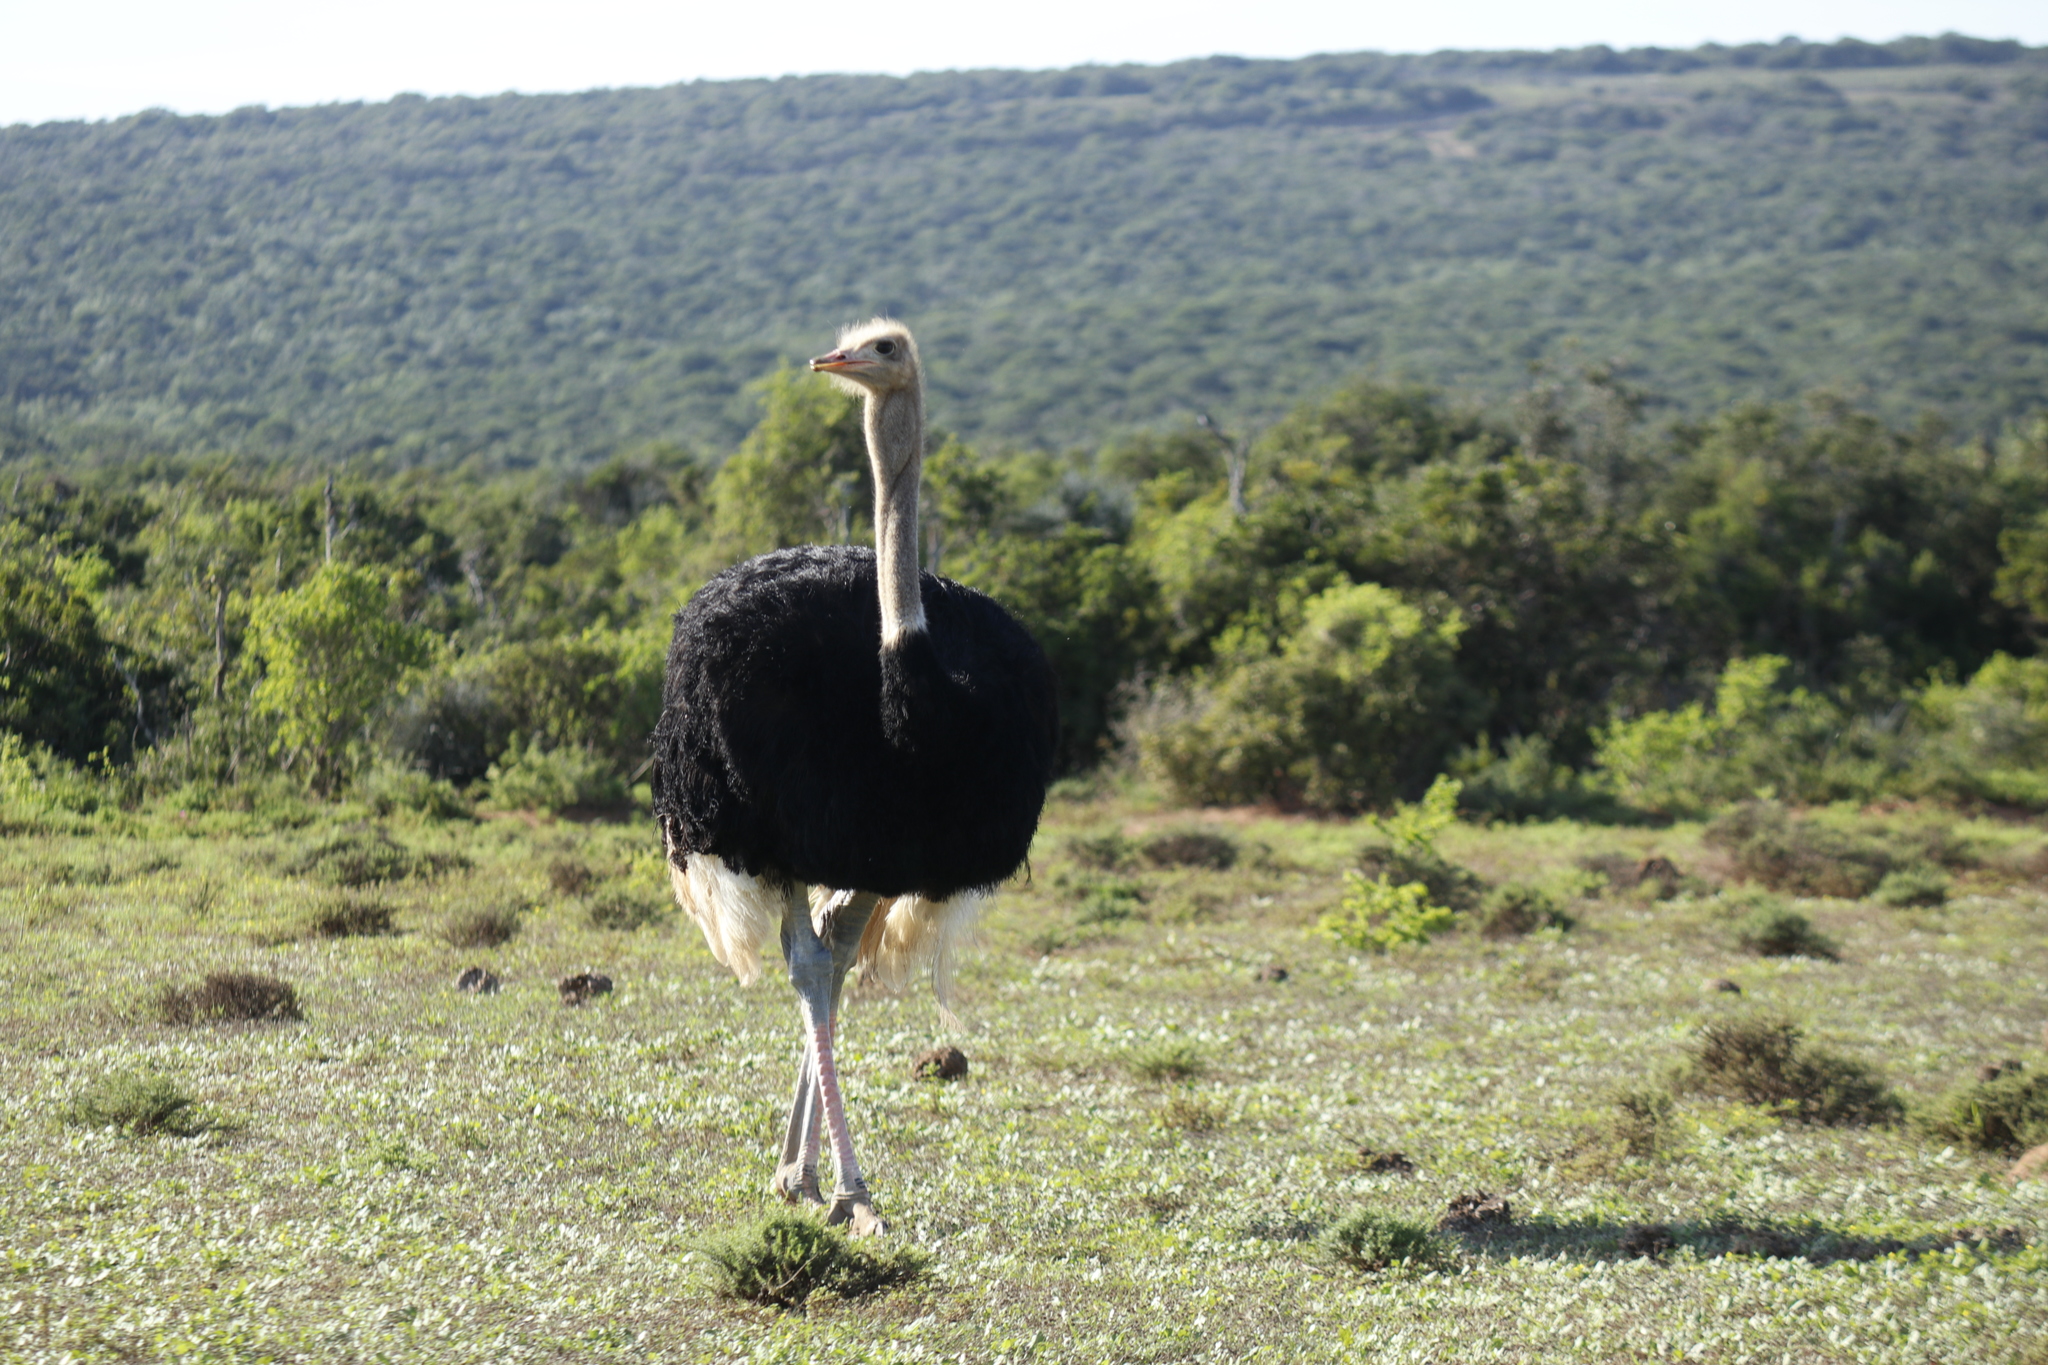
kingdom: Animalia
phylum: Chordata
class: Aves
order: Struthioniformes
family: Struthionidae
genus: Struthio
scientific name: Struthio camelus
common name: Common ostrich
